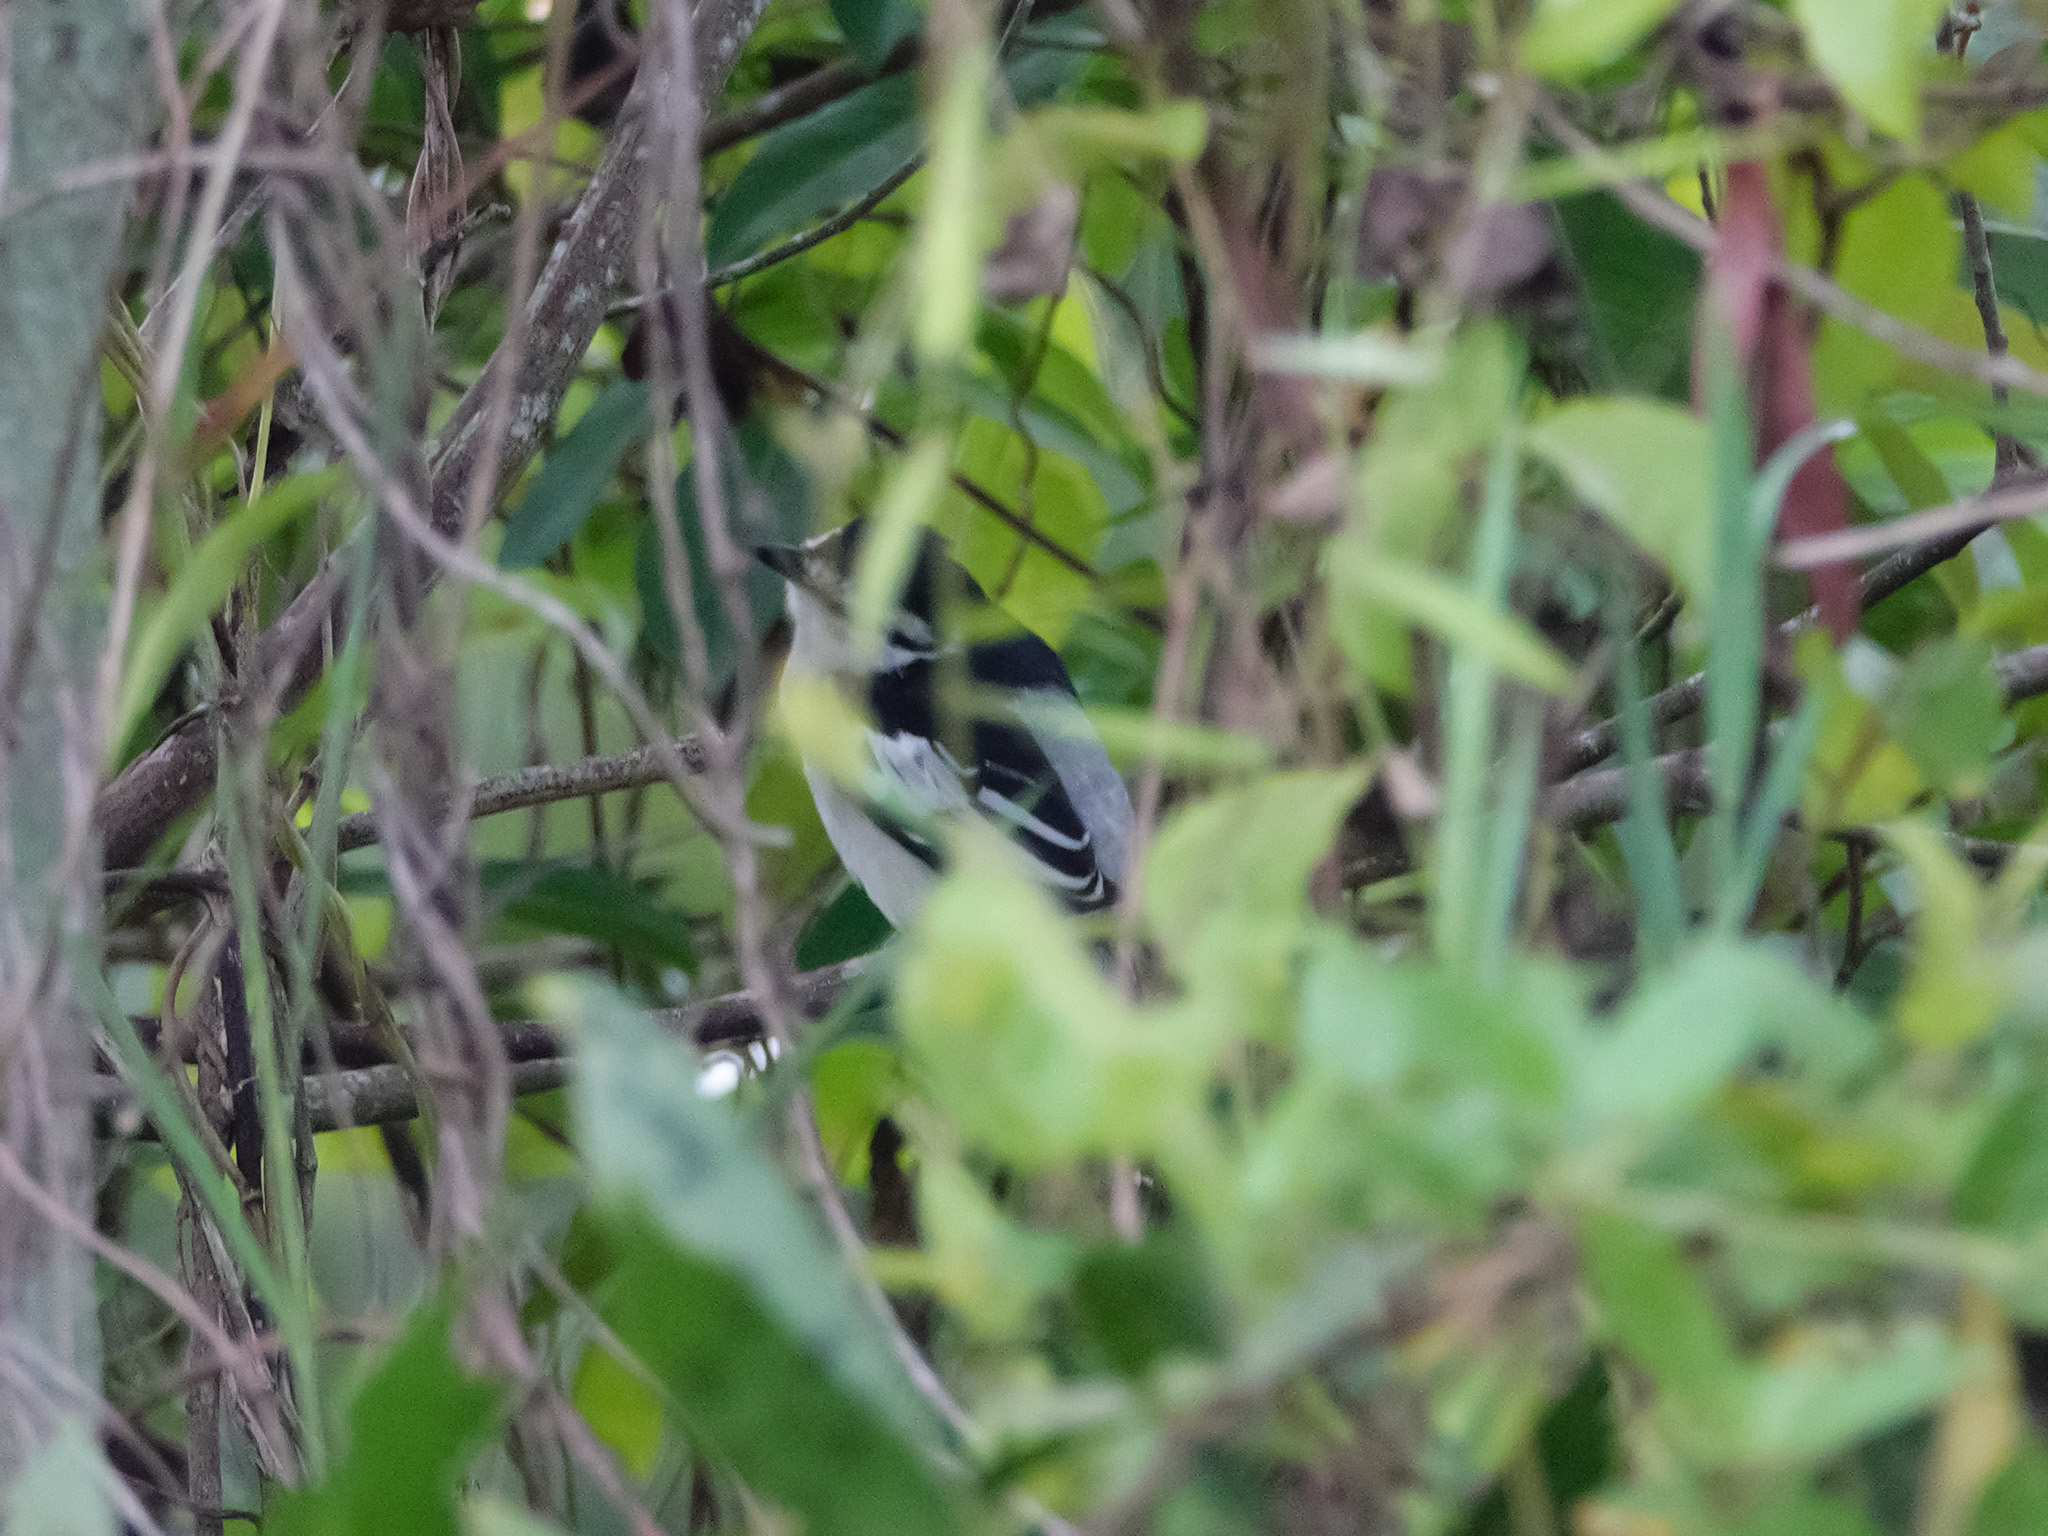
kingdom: Animalia
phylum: Chordata
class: Aves
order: Passeriformes
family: Campephagidae
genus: Lalage
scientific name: Lalage nigra
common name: Pied triller
